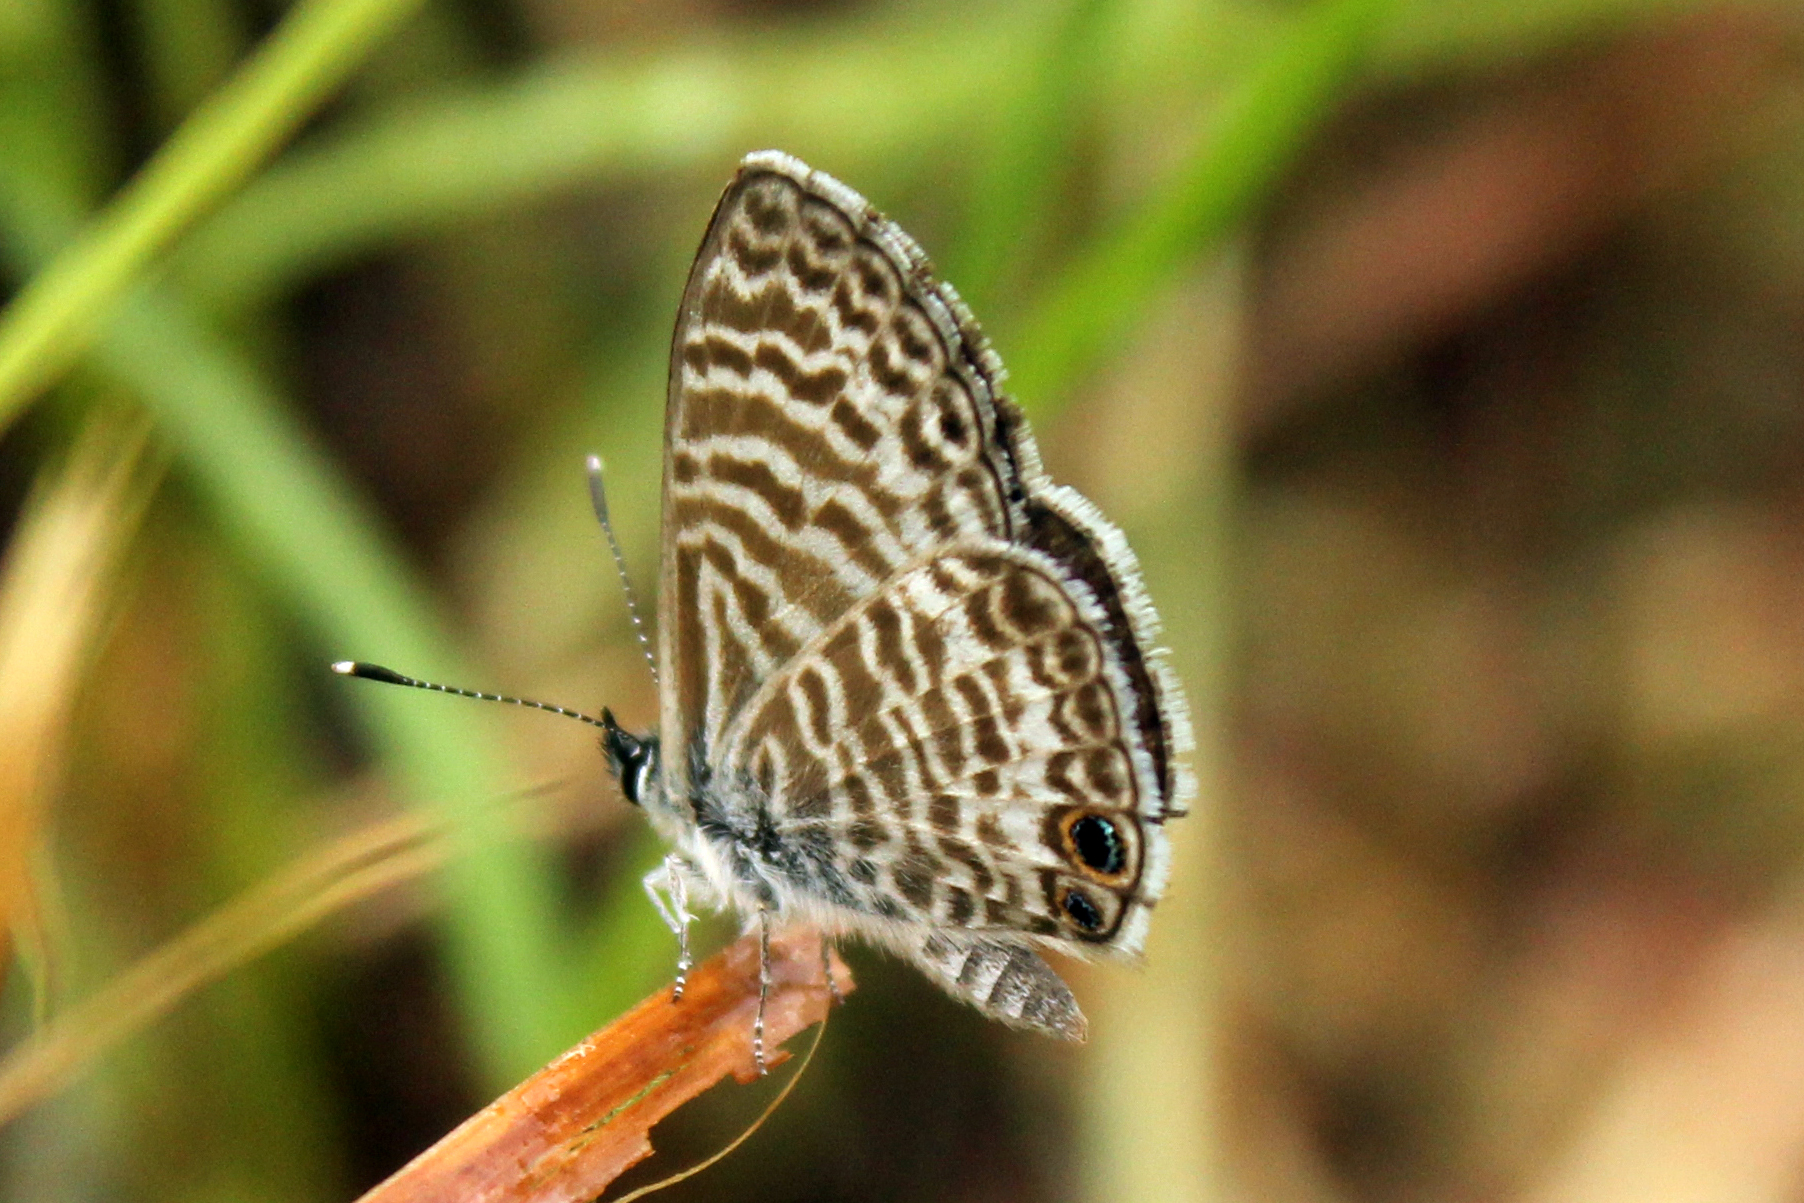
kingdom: Animalia
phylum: Arthropoda
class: Insecta
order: Lepidoptera
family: Lycaenidae
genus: Leptotes
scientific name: Leptotes marina
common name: Marine blue
